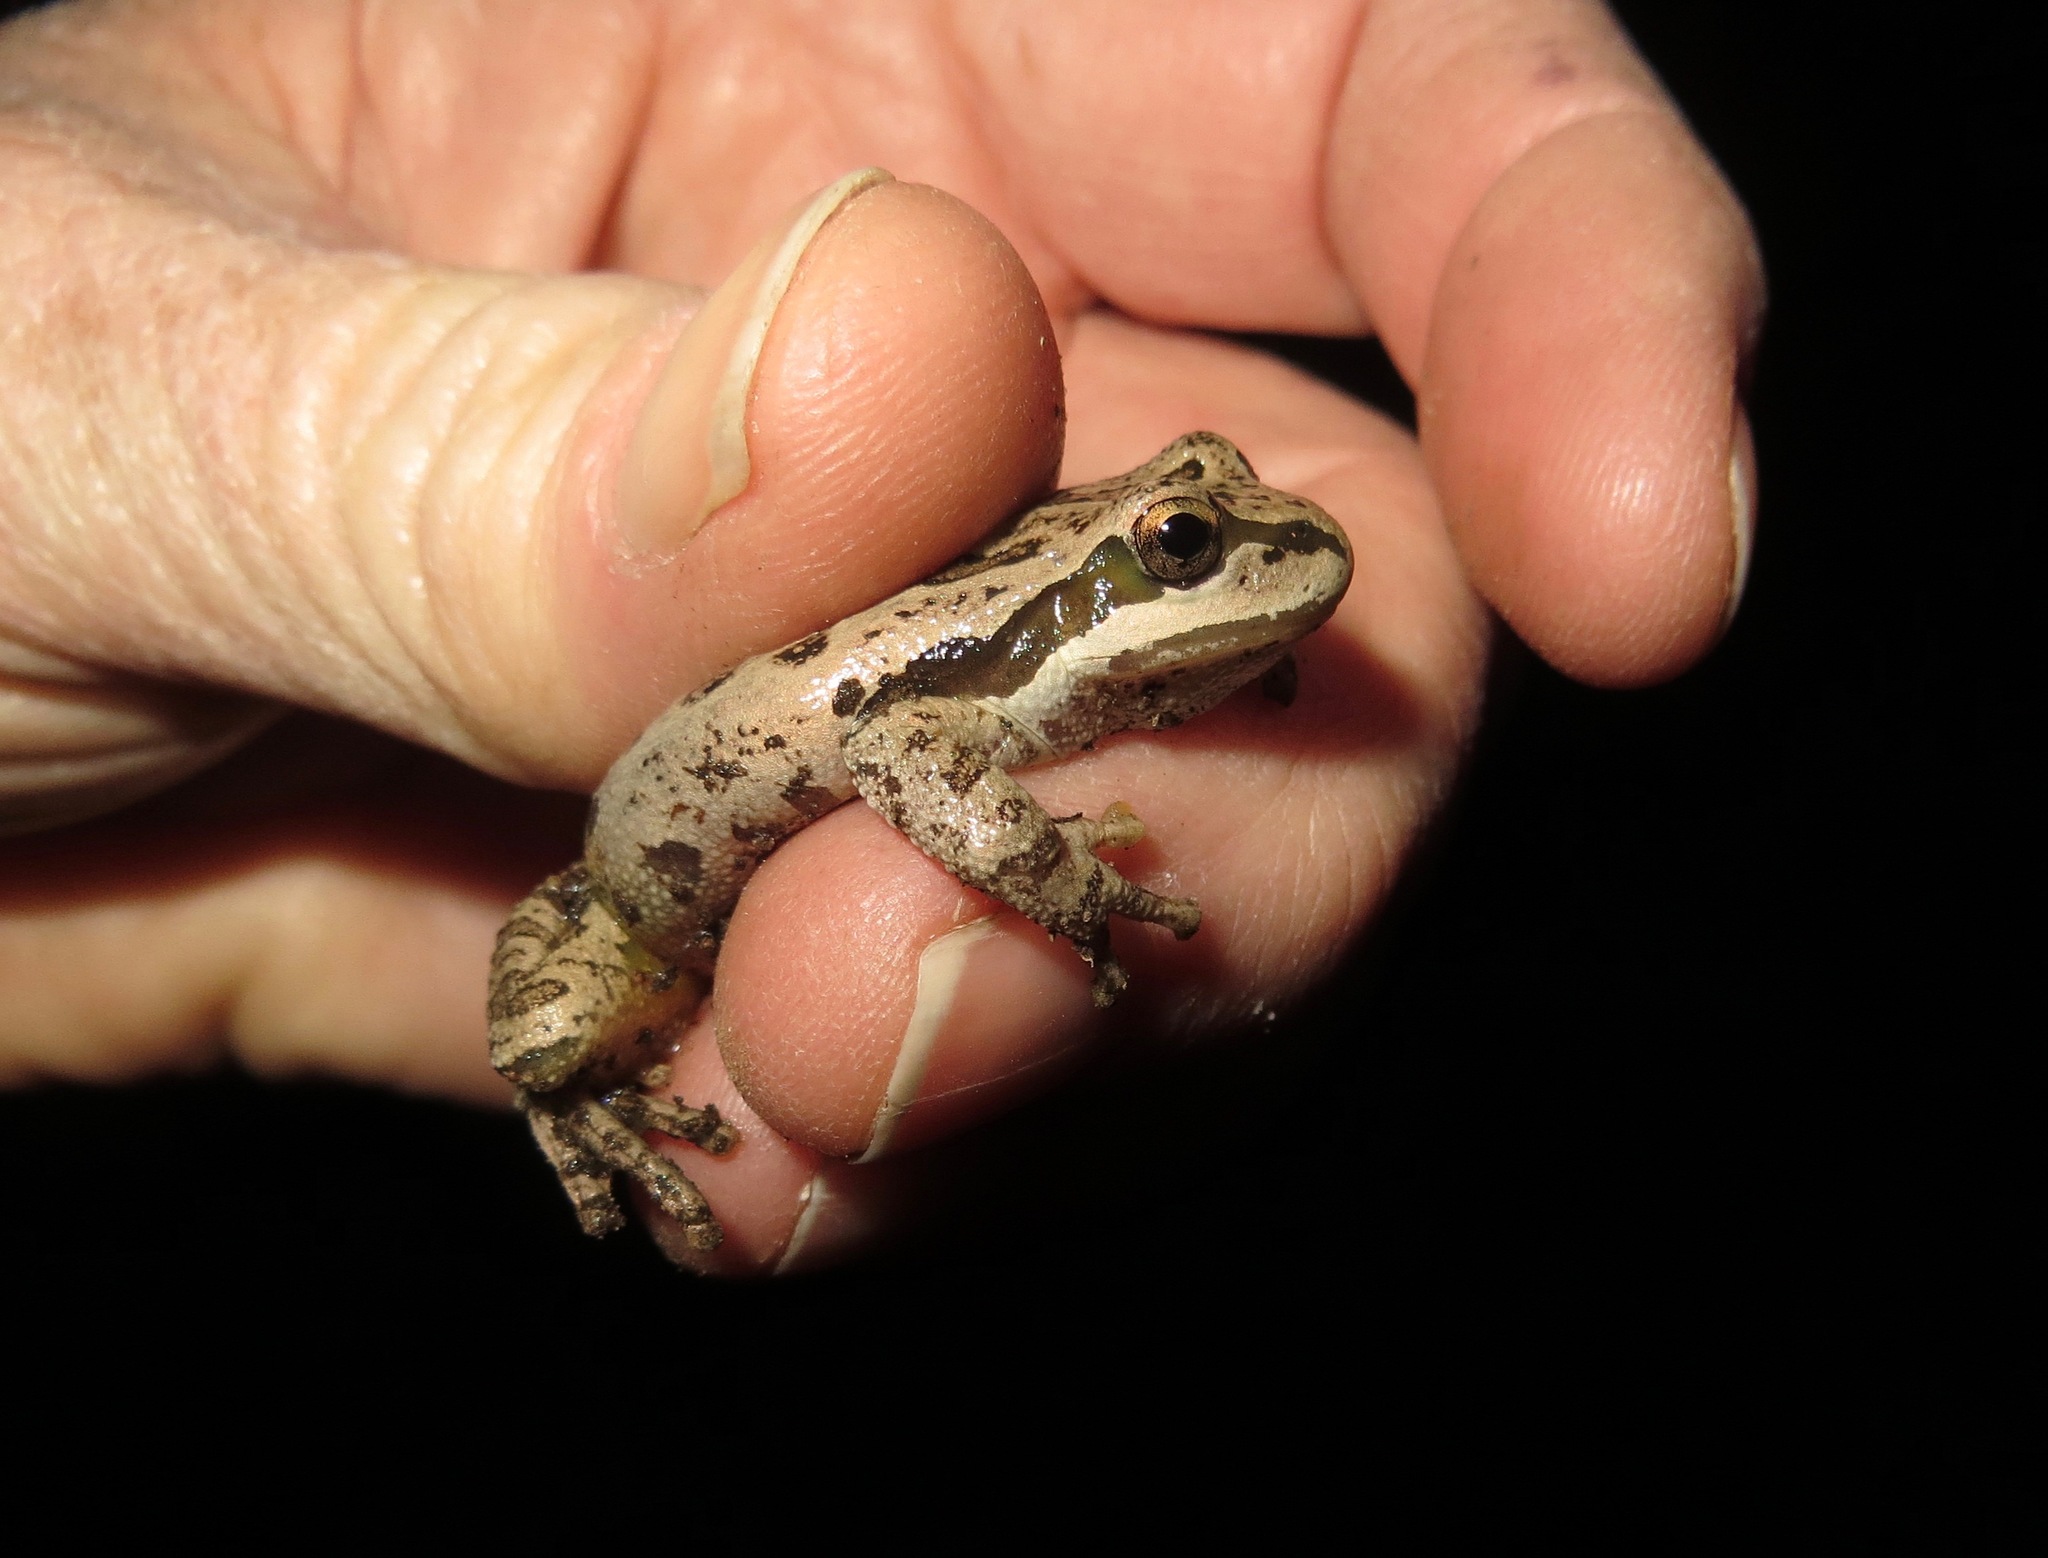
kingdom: Animalia
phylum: Chordata
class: Amphibia
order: Anura
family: Hylidae
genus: Pseudacris
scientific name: Pseudacris regilla
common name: Pacific chorus frog
